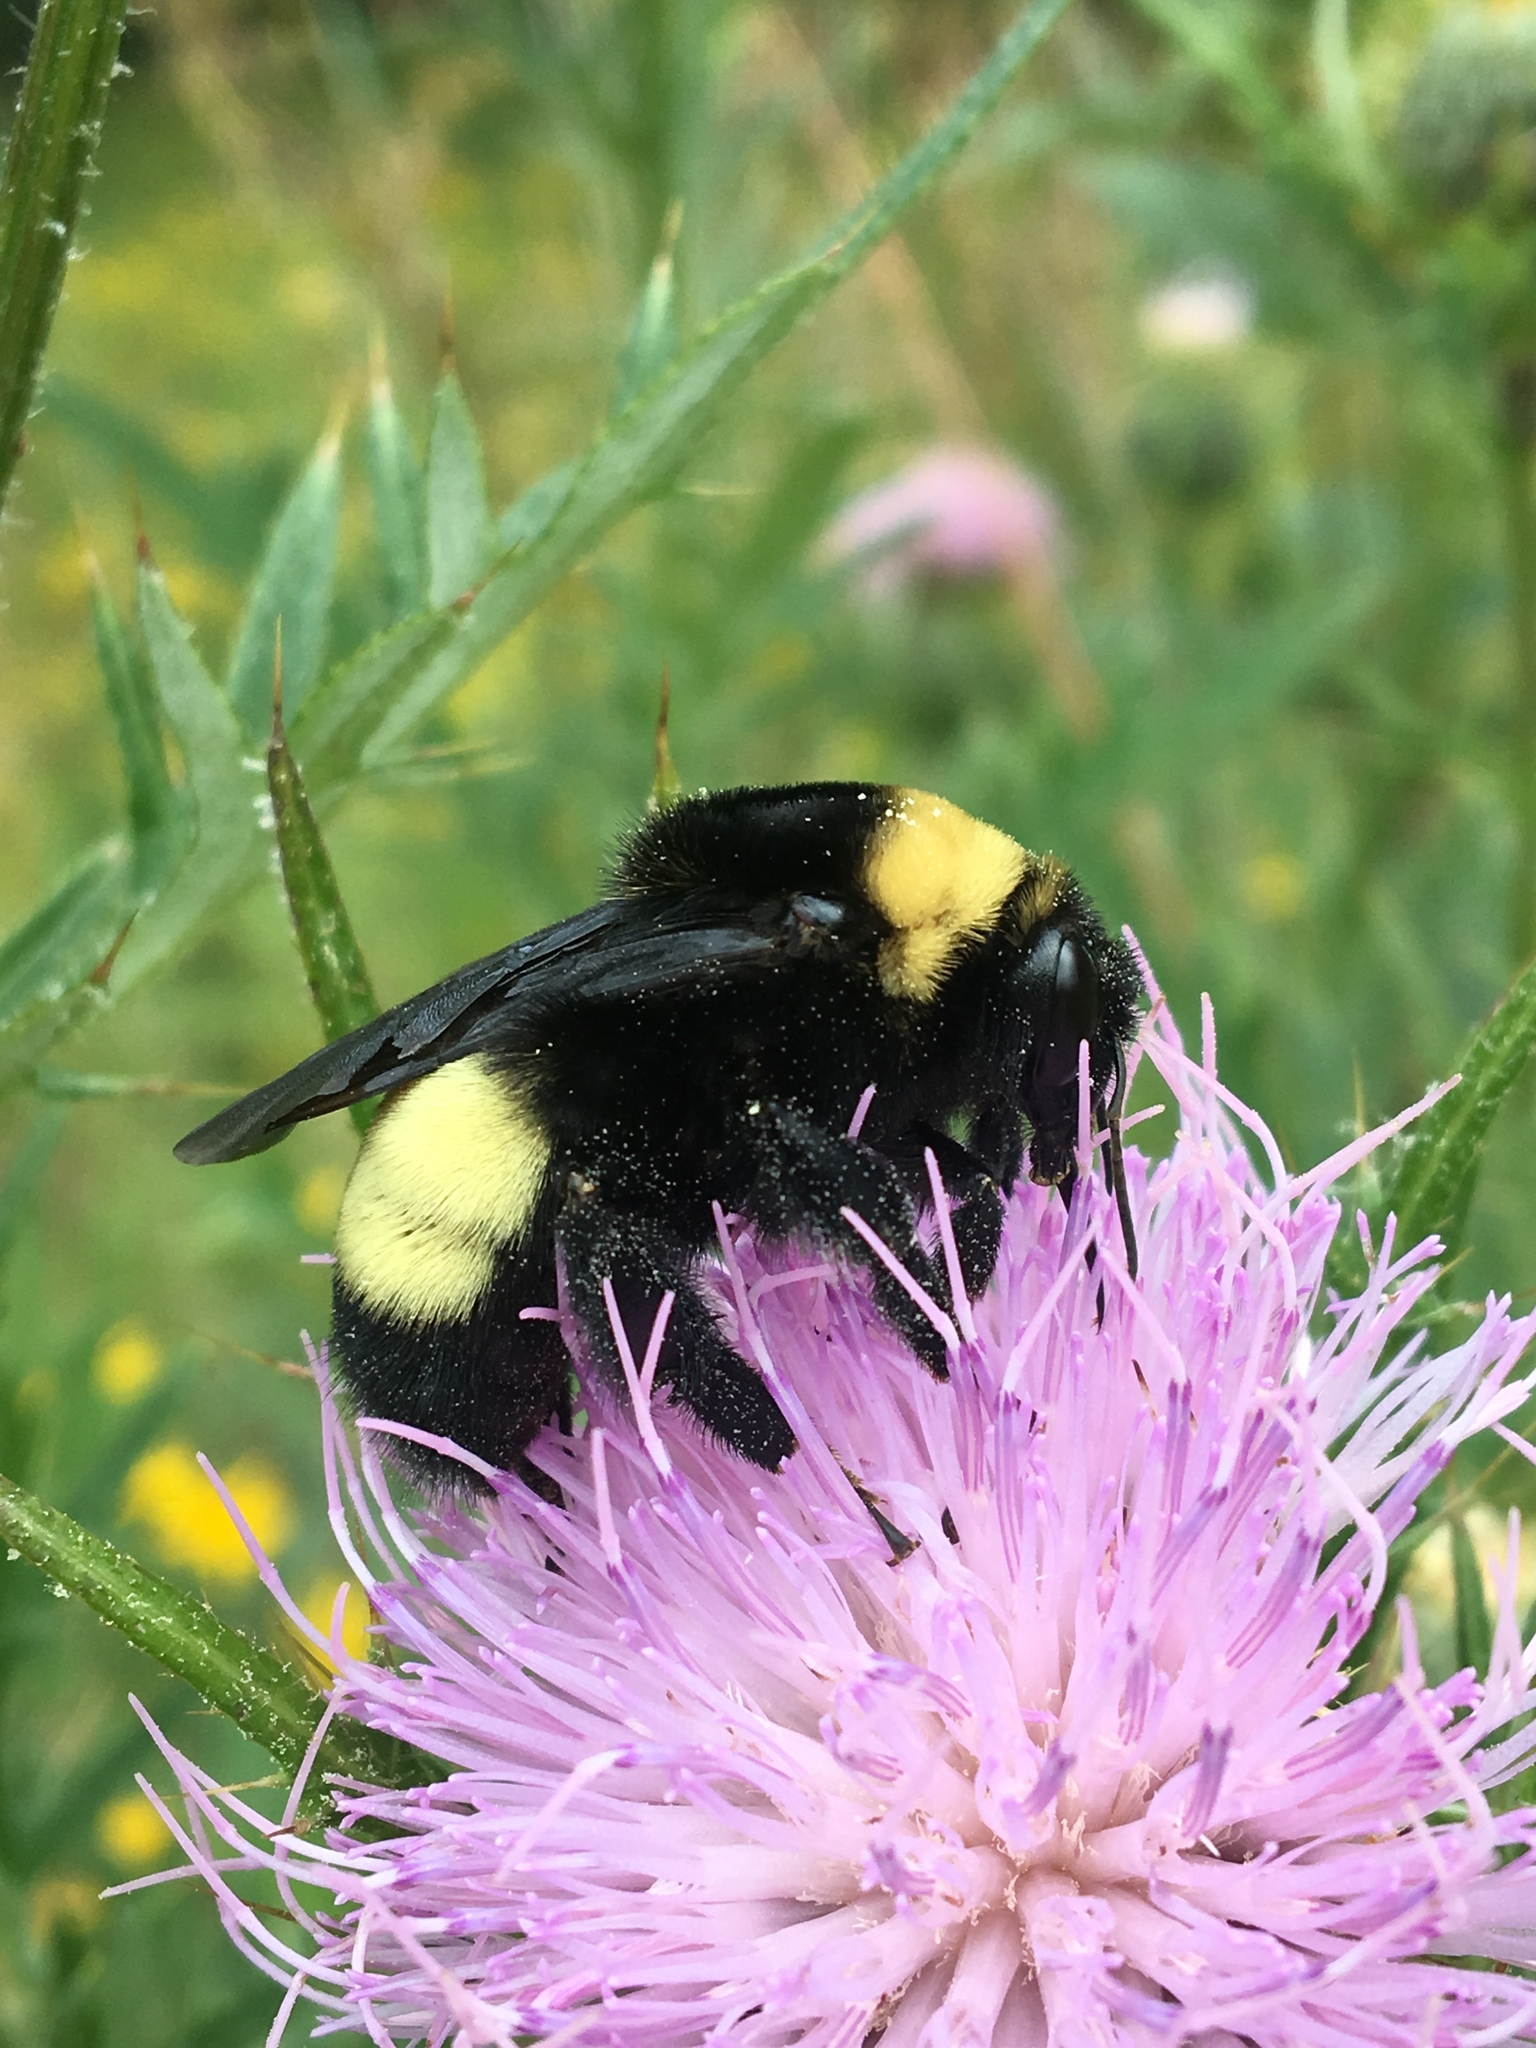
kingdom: Animalia
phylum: Arthropoda
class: Insecta
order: Hymenoptera
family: Apidae
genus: Bombus
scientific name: Bombus auricomus
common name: Black and gold bumble bee
